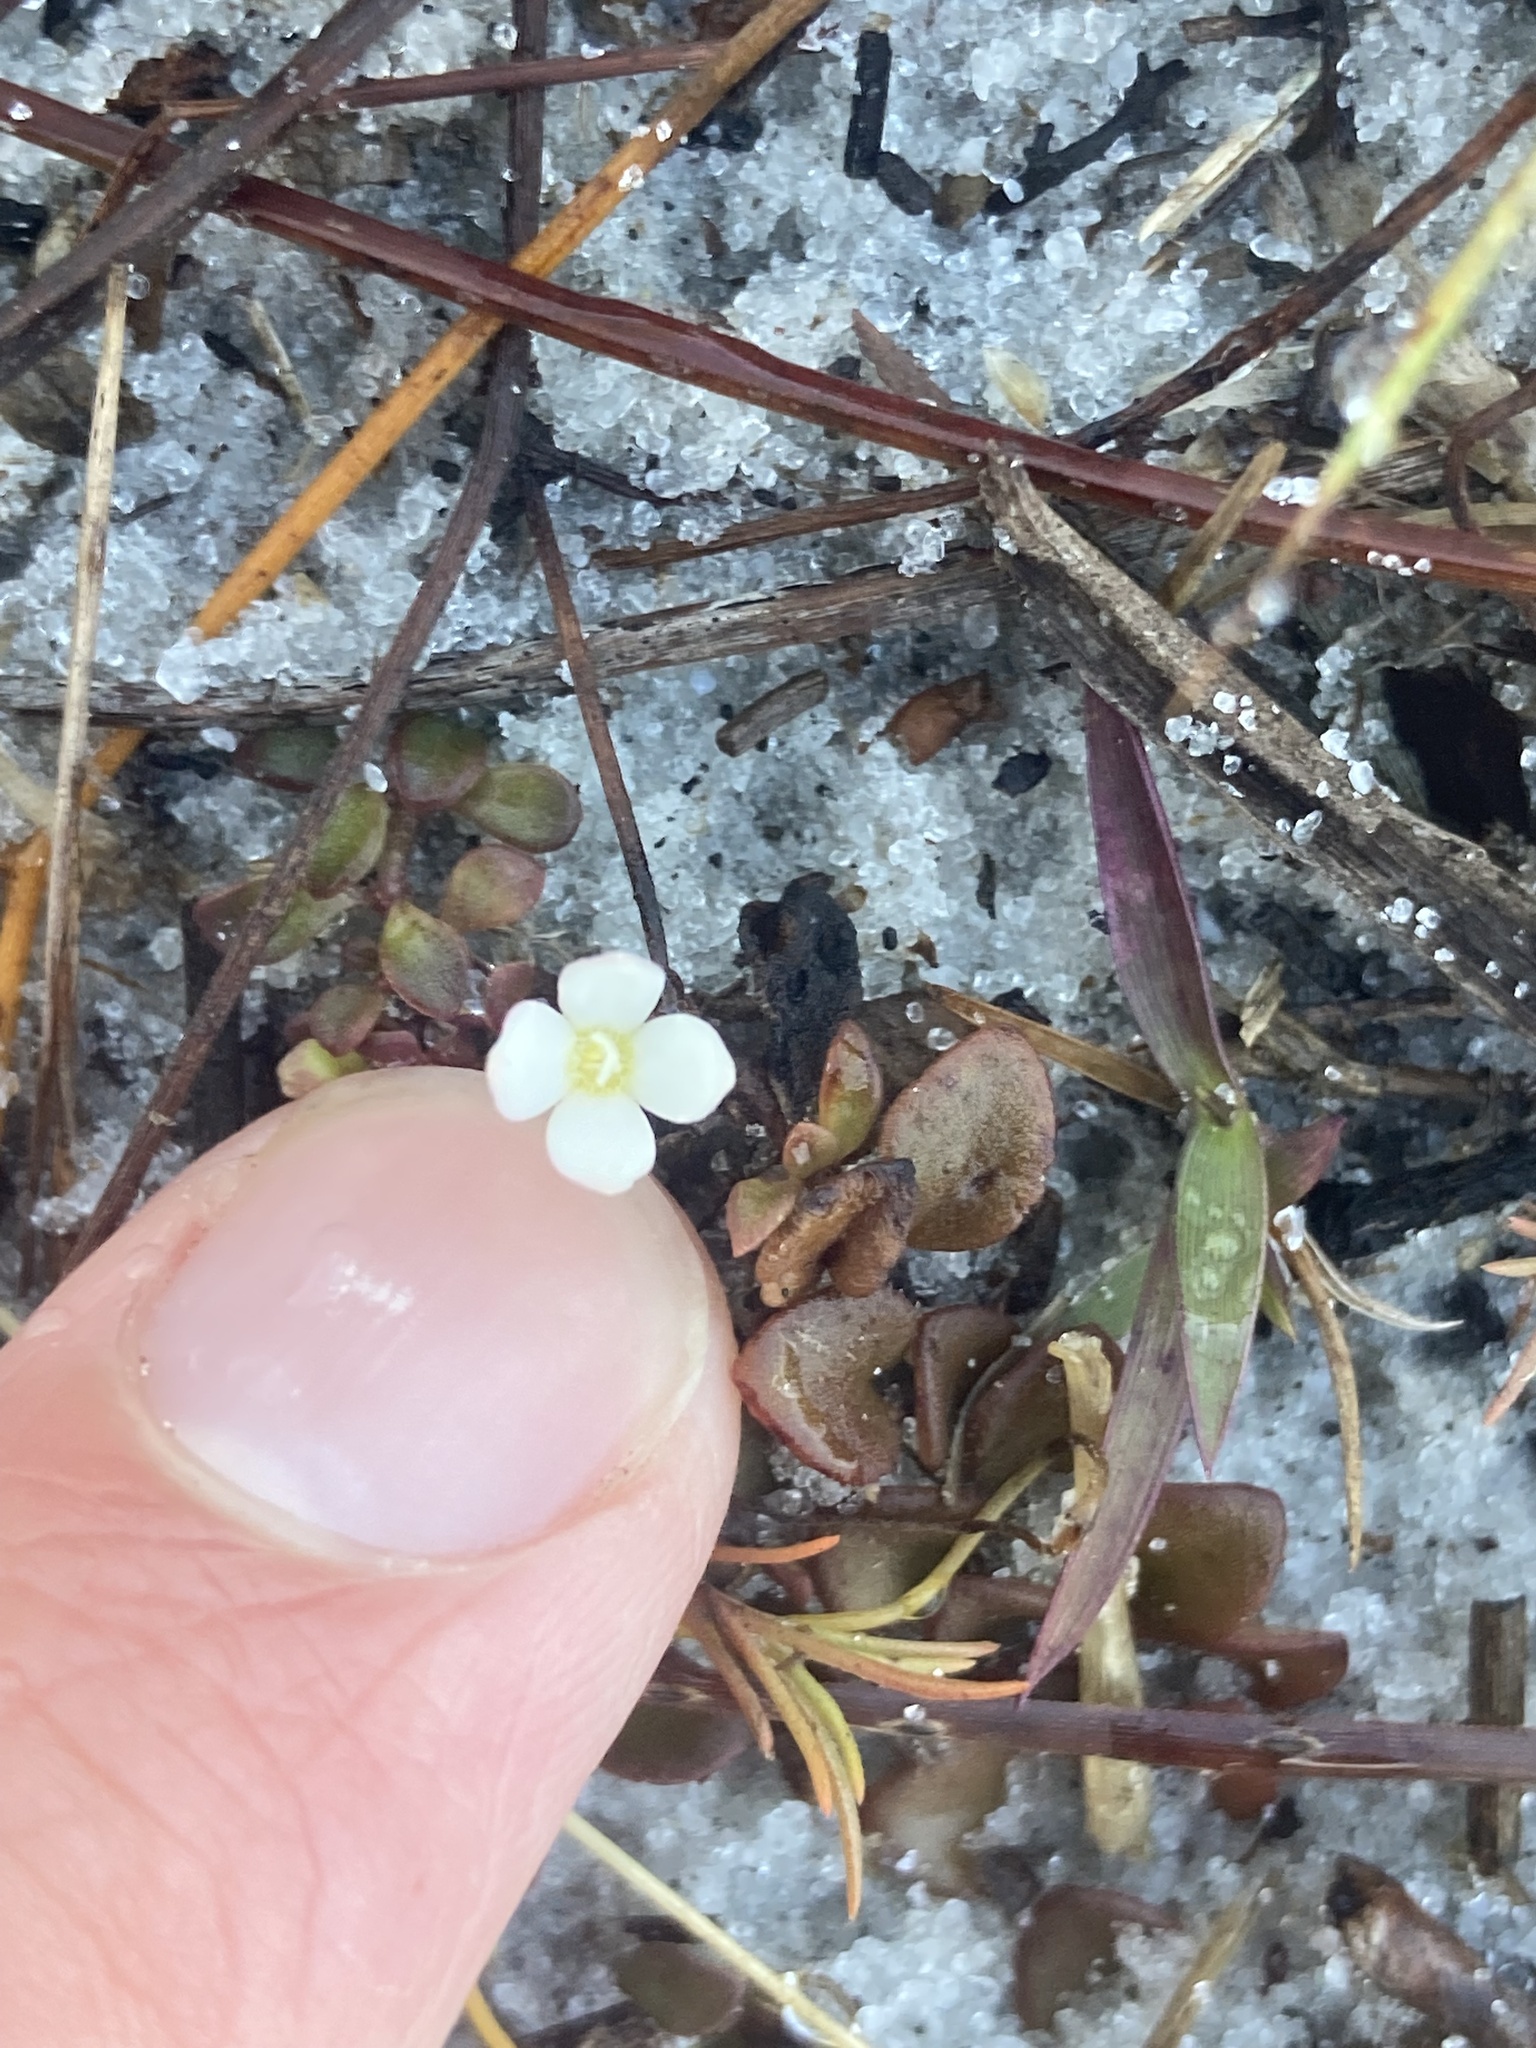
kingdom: Plantae
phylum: Tracheophyta
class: Magnoliopsida
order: Gentianales
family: Rubiaceae
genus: Houstonia
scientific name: Houstonia procumbens
